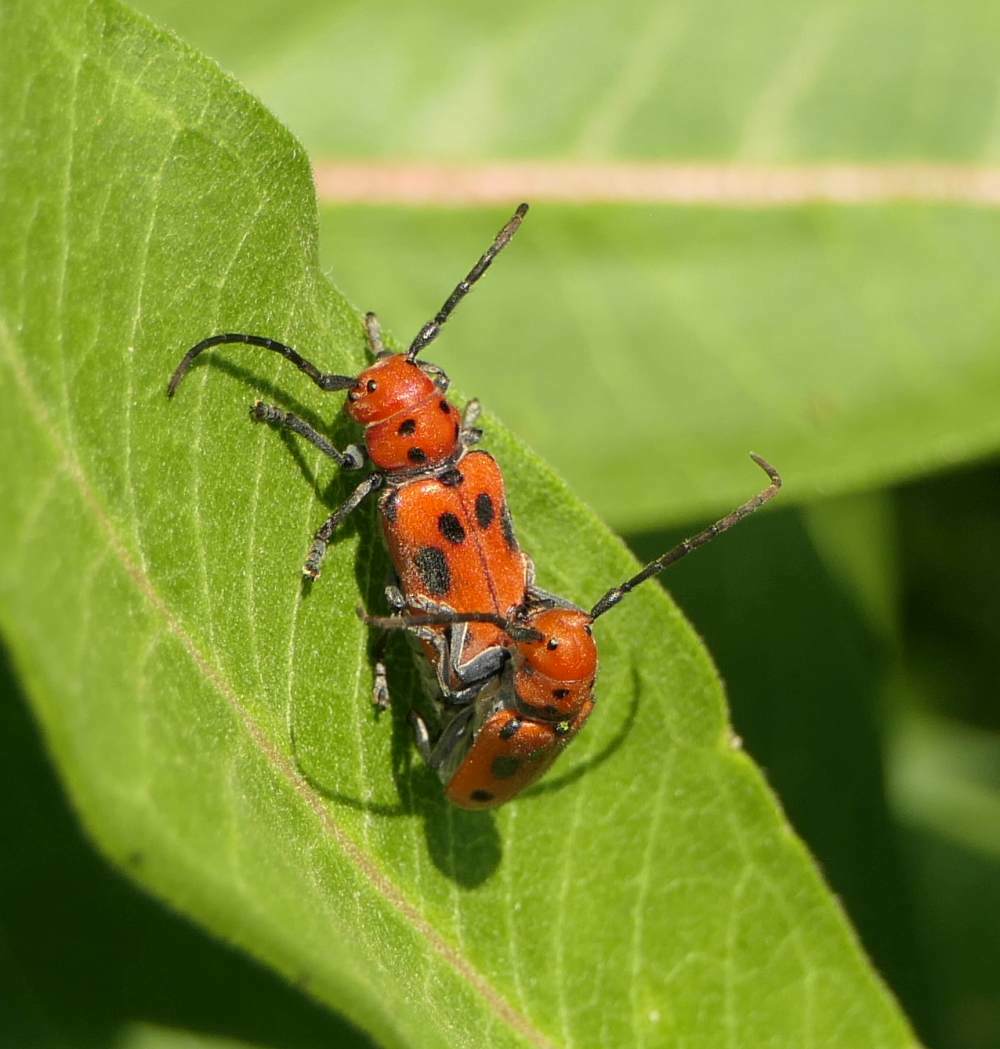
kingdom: Animalia
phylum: Arthropoda
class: Insecta
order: Coleoptera
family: Cerambycidae
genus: Tetraopes
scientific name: Tetraopes tetrophthalmus
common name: Red milkweed beetle
